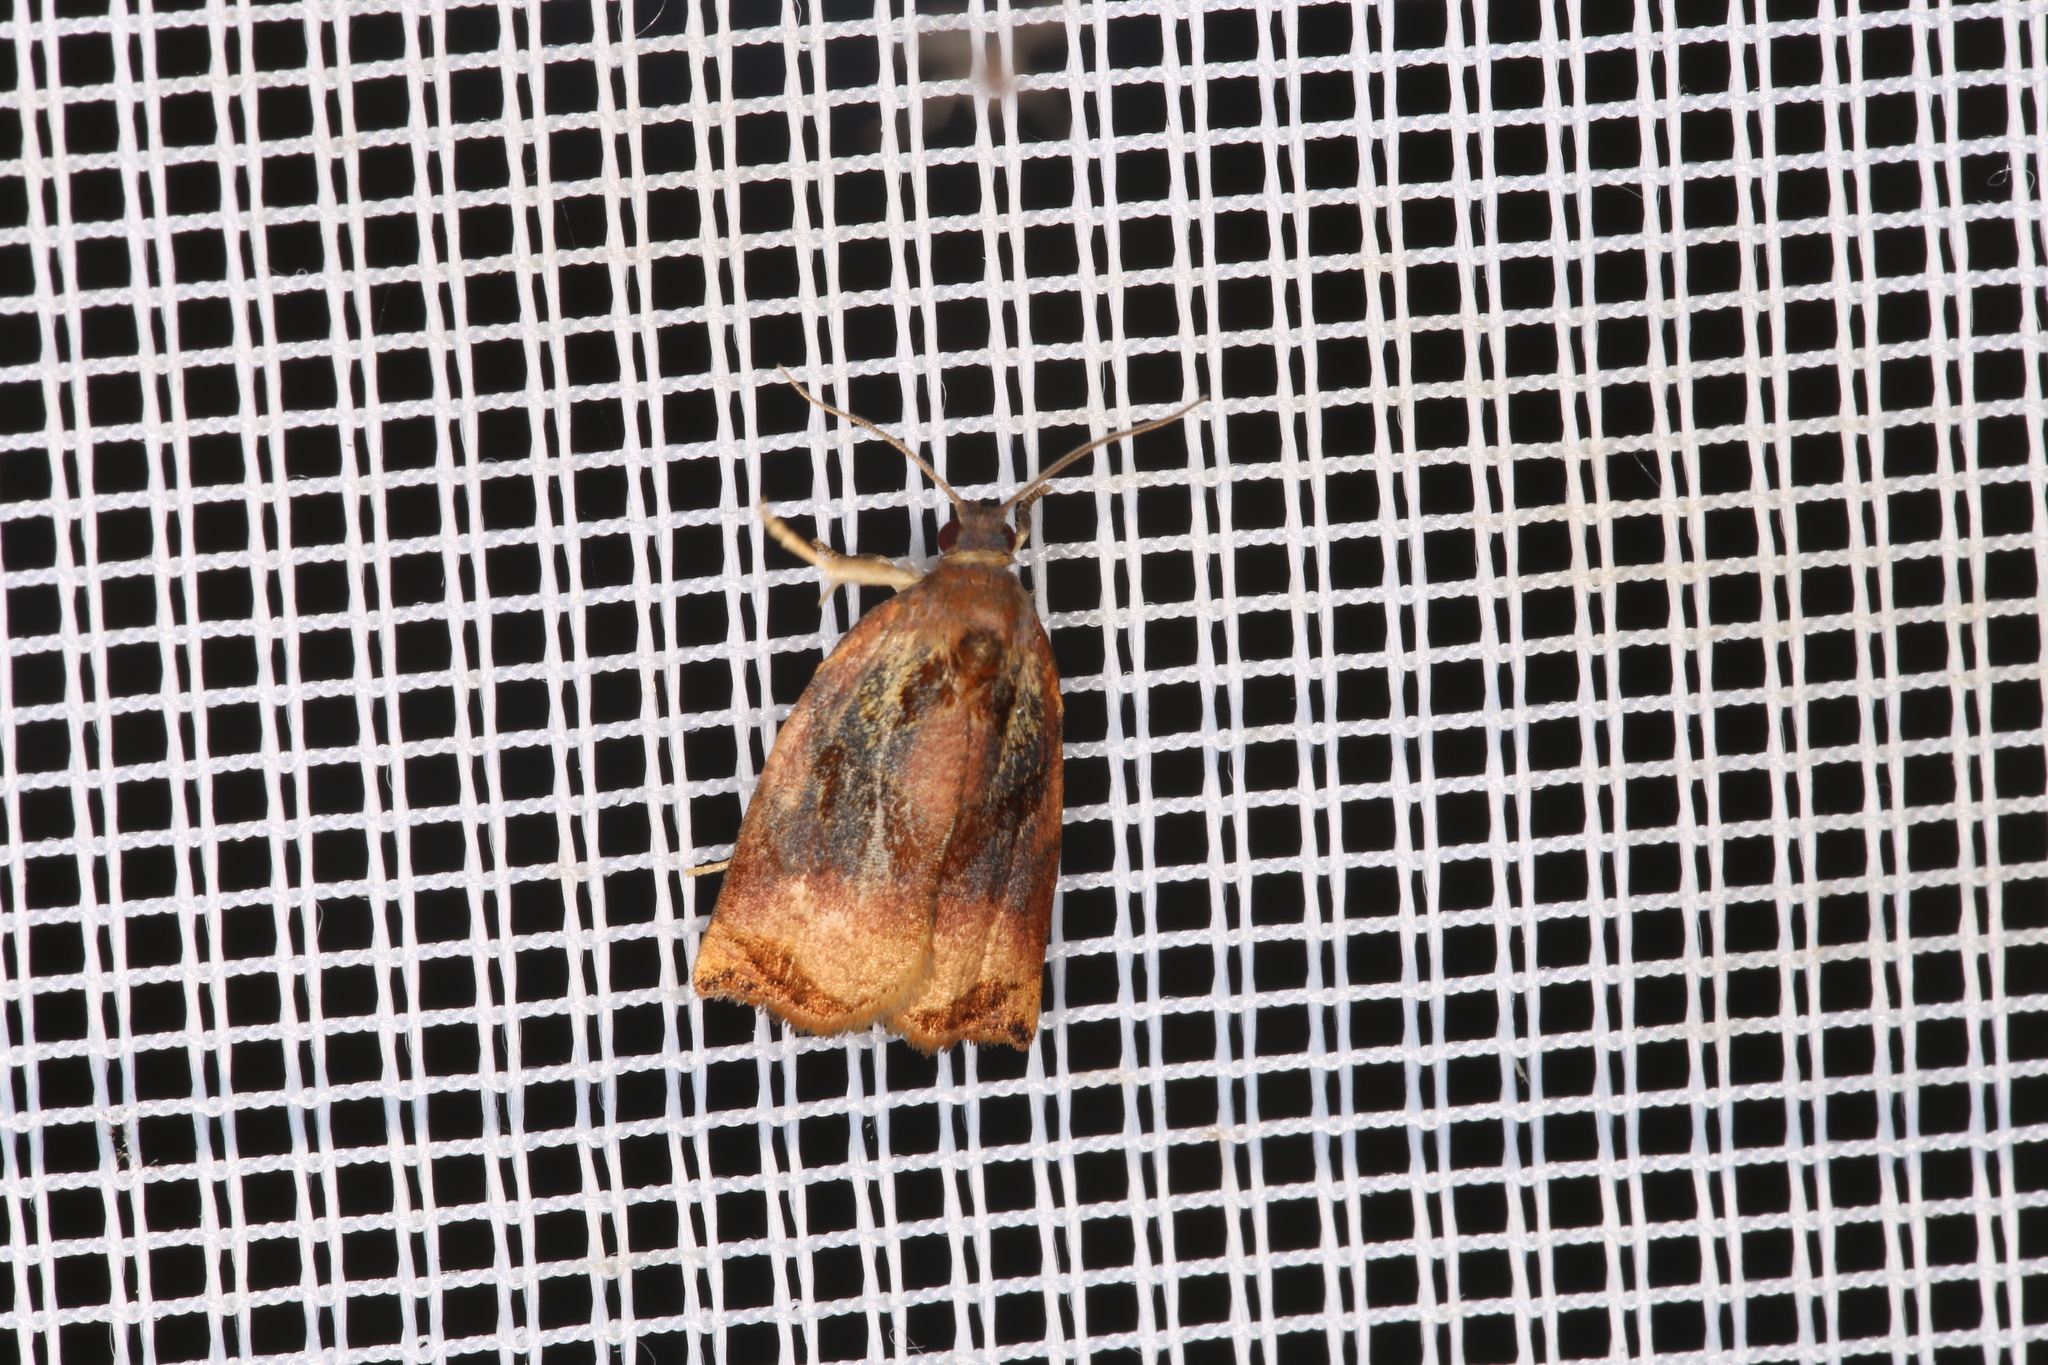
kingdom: Animalia
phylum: Arthropoda
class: Insecta
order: Lepidoptera
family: Tortricidae
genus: Archips
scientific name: Archips podana
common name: Large fruit-tree tortrix
